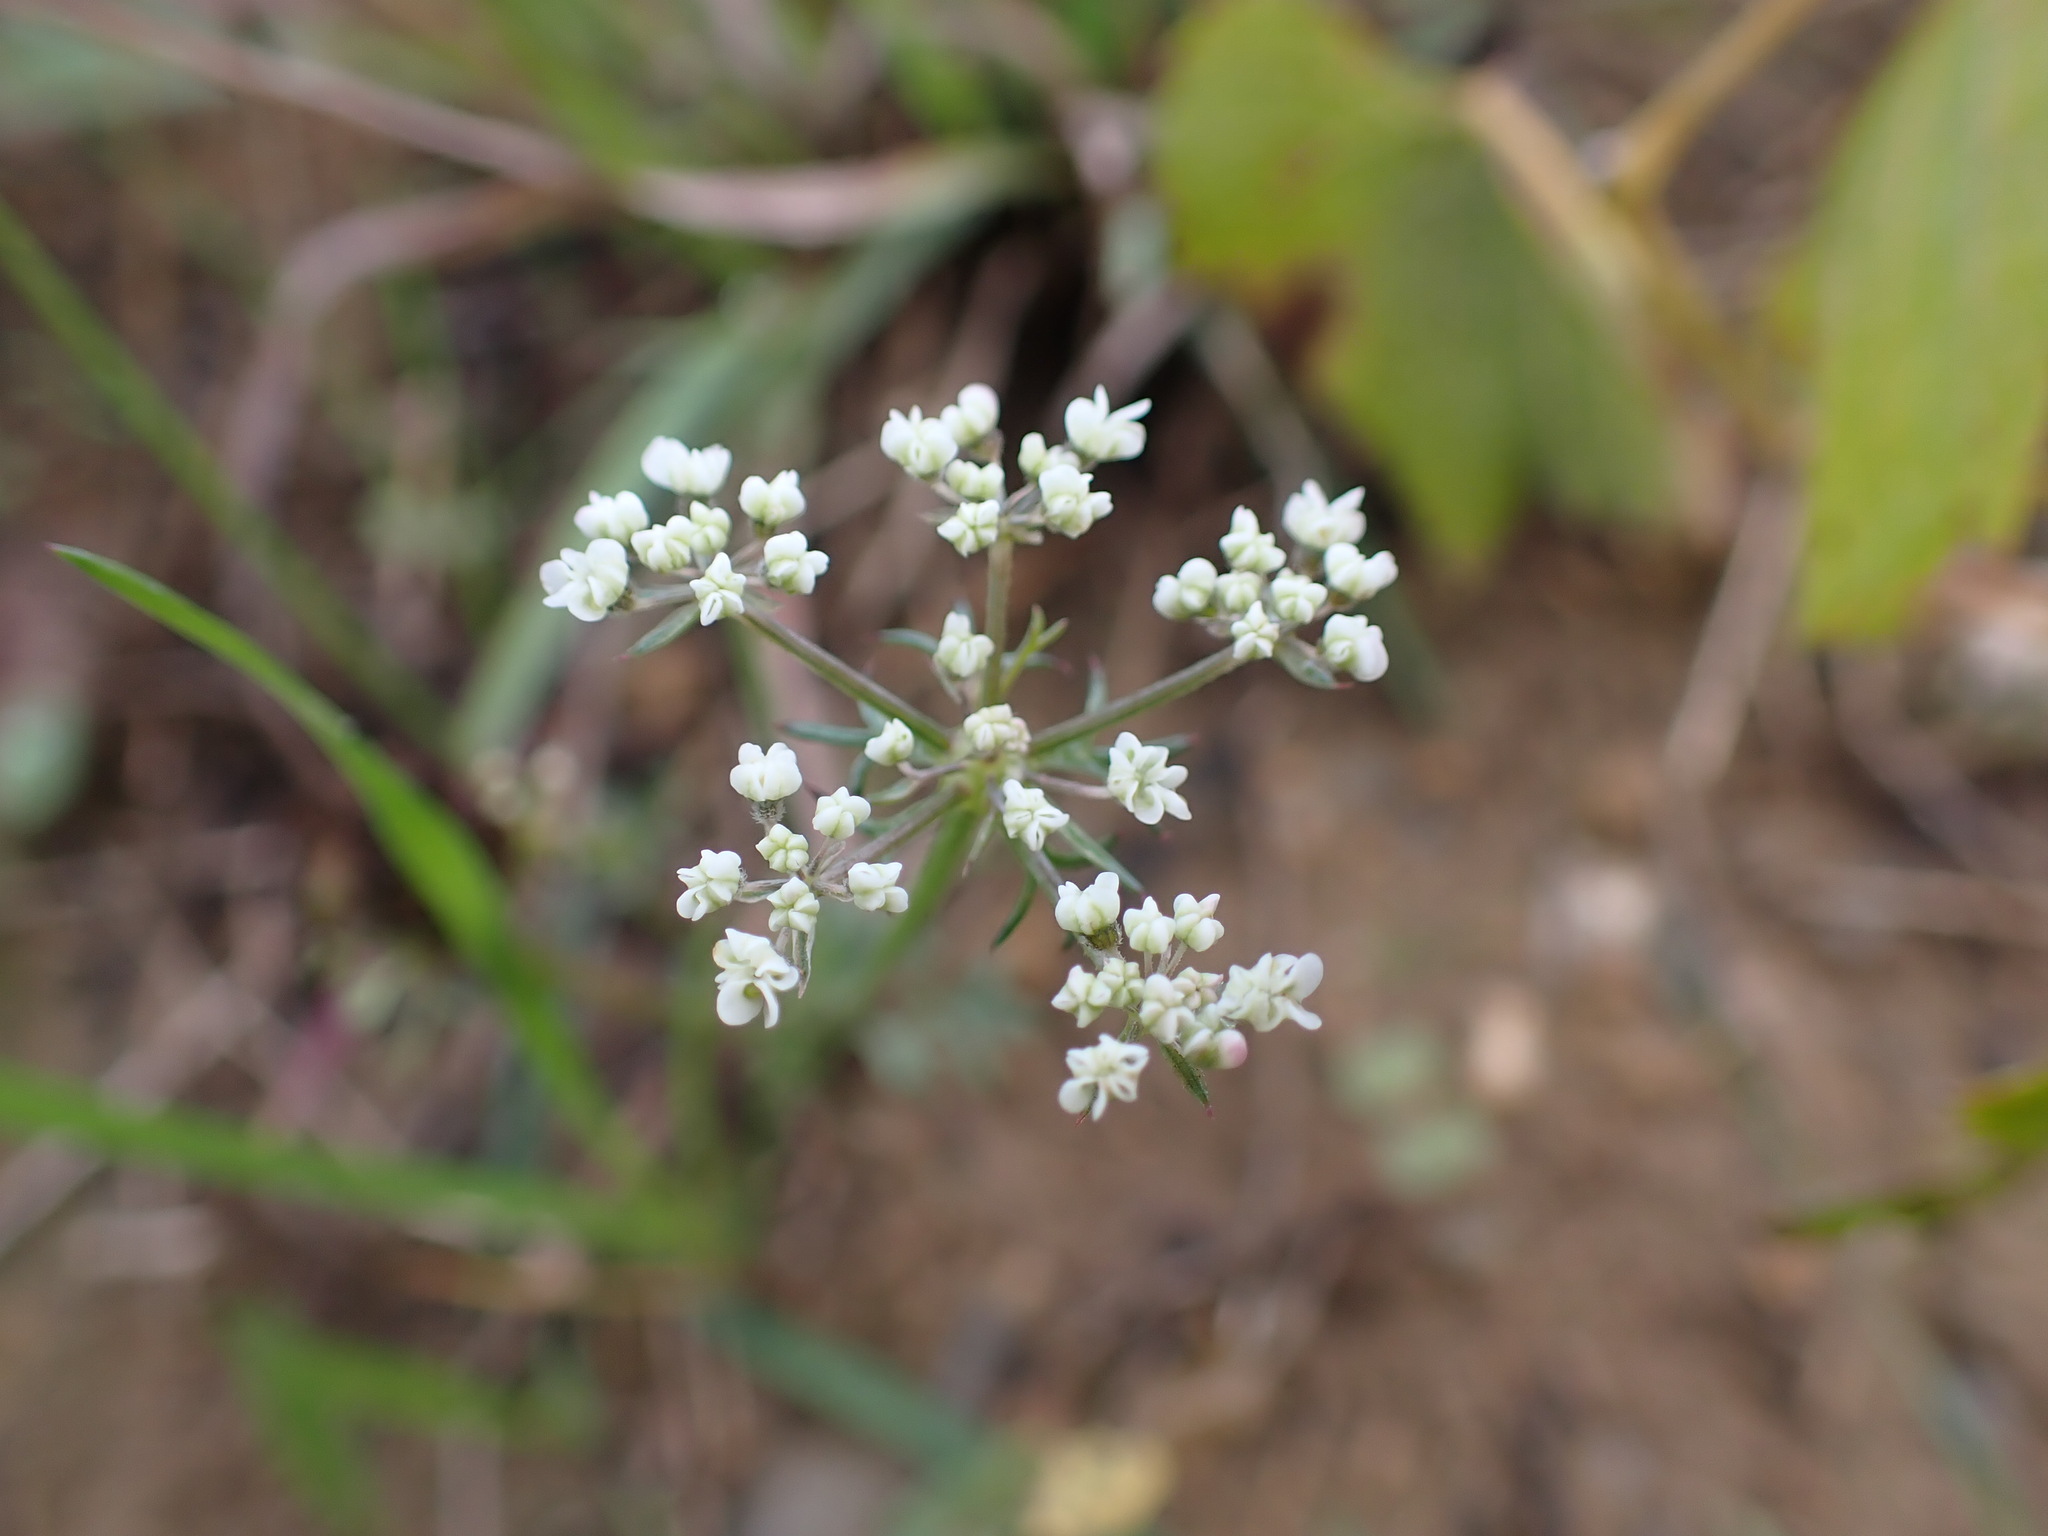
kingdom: Plantae
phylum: Tracheophyta
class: Magnoliopsida
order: Apiales
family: Apiaceae
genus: Daucus
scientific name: Daucus carota
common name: Wild carrot
